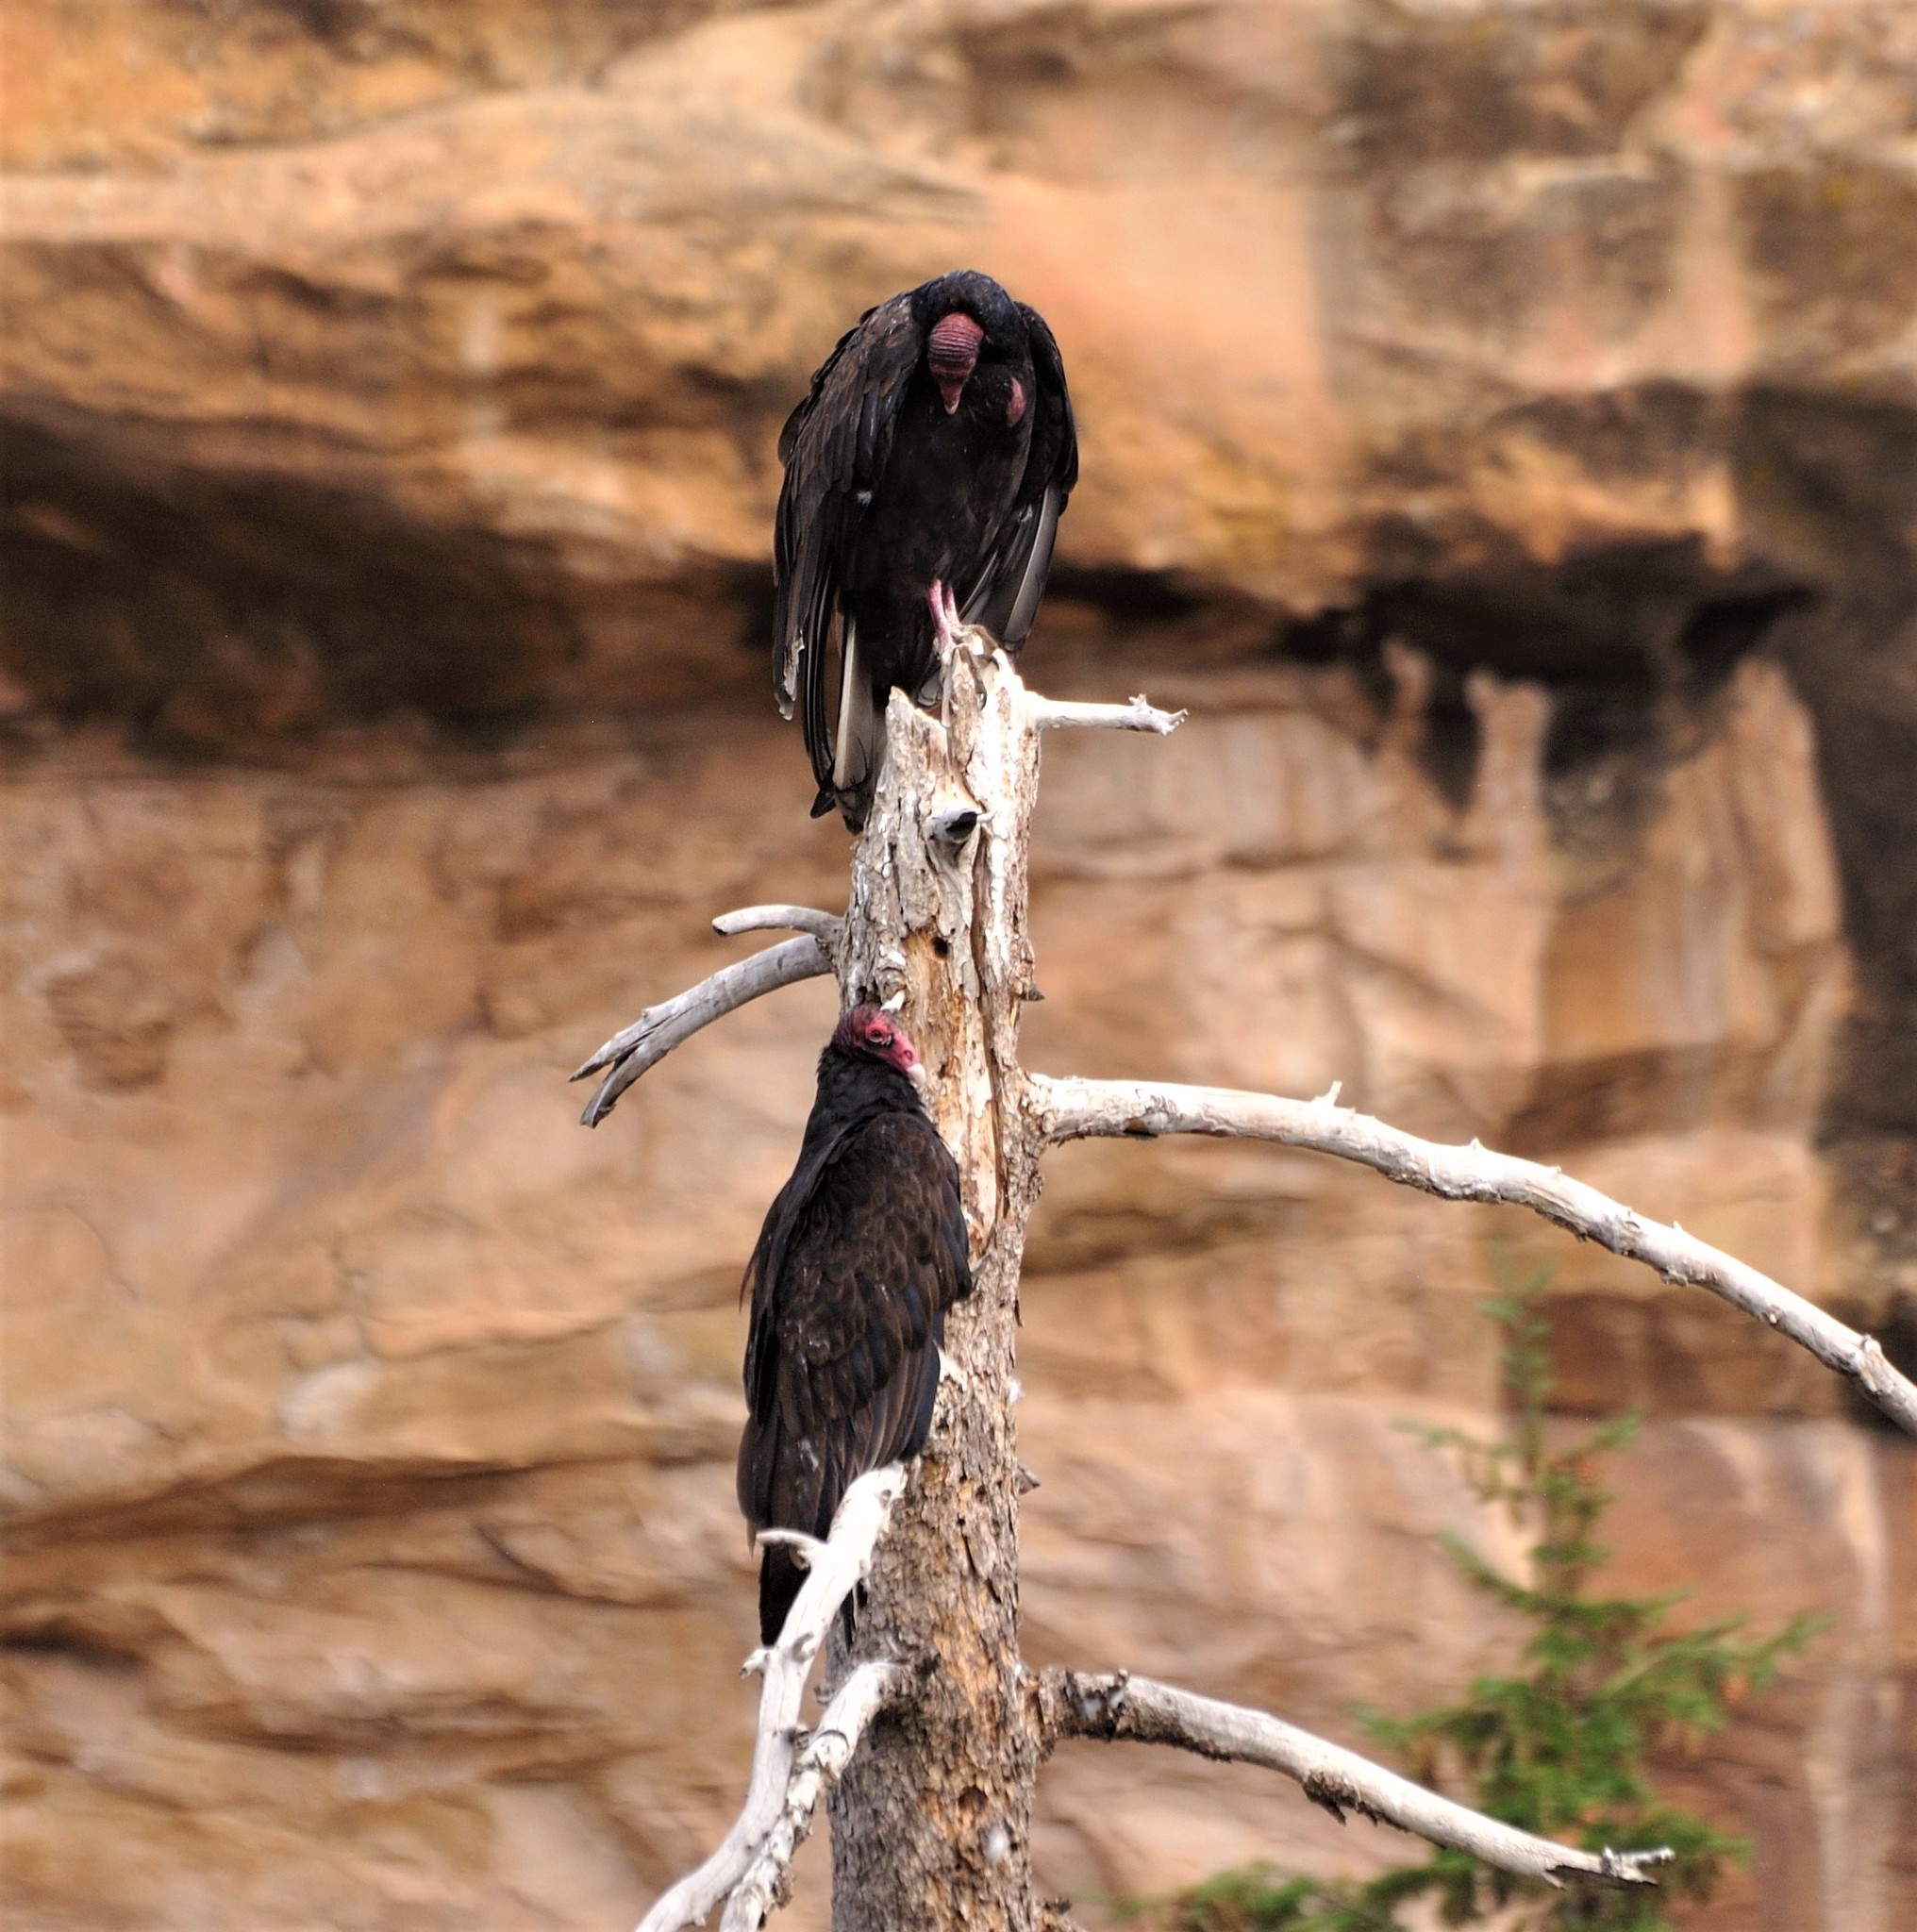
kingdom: Animalia
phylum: Chordata
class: Aves
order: Accipitriformes
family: Cathartidae
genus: Cathartes
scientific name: Cathartes aura
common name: Turkey vulture
